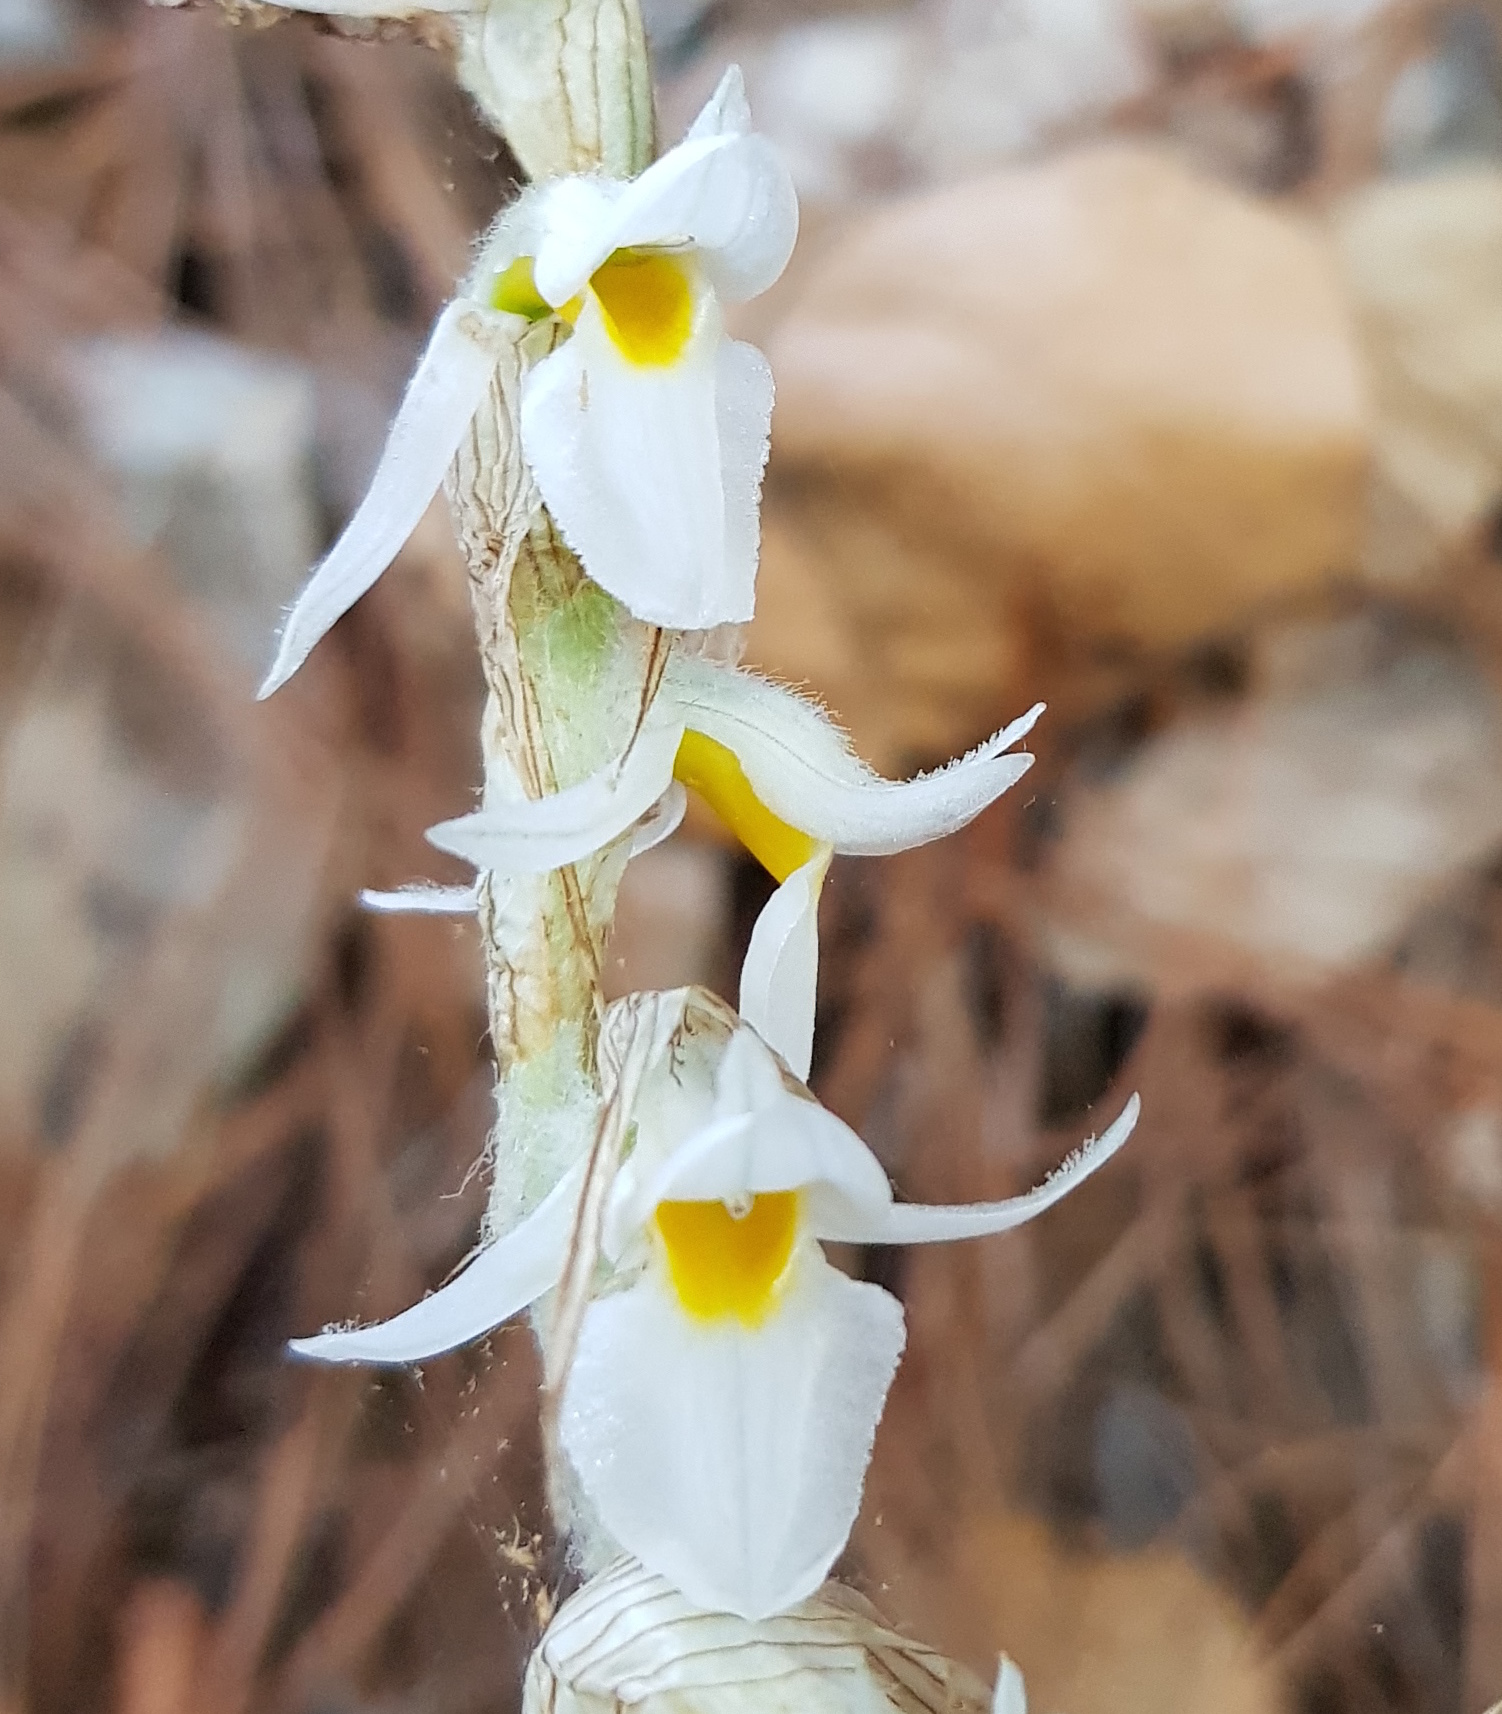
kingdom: Plantae
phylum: Tracheophyta
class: Liliopsida
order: Asparagales
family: Orchidaceae
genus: Deiregyne
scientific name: Deiregyne eriophora
